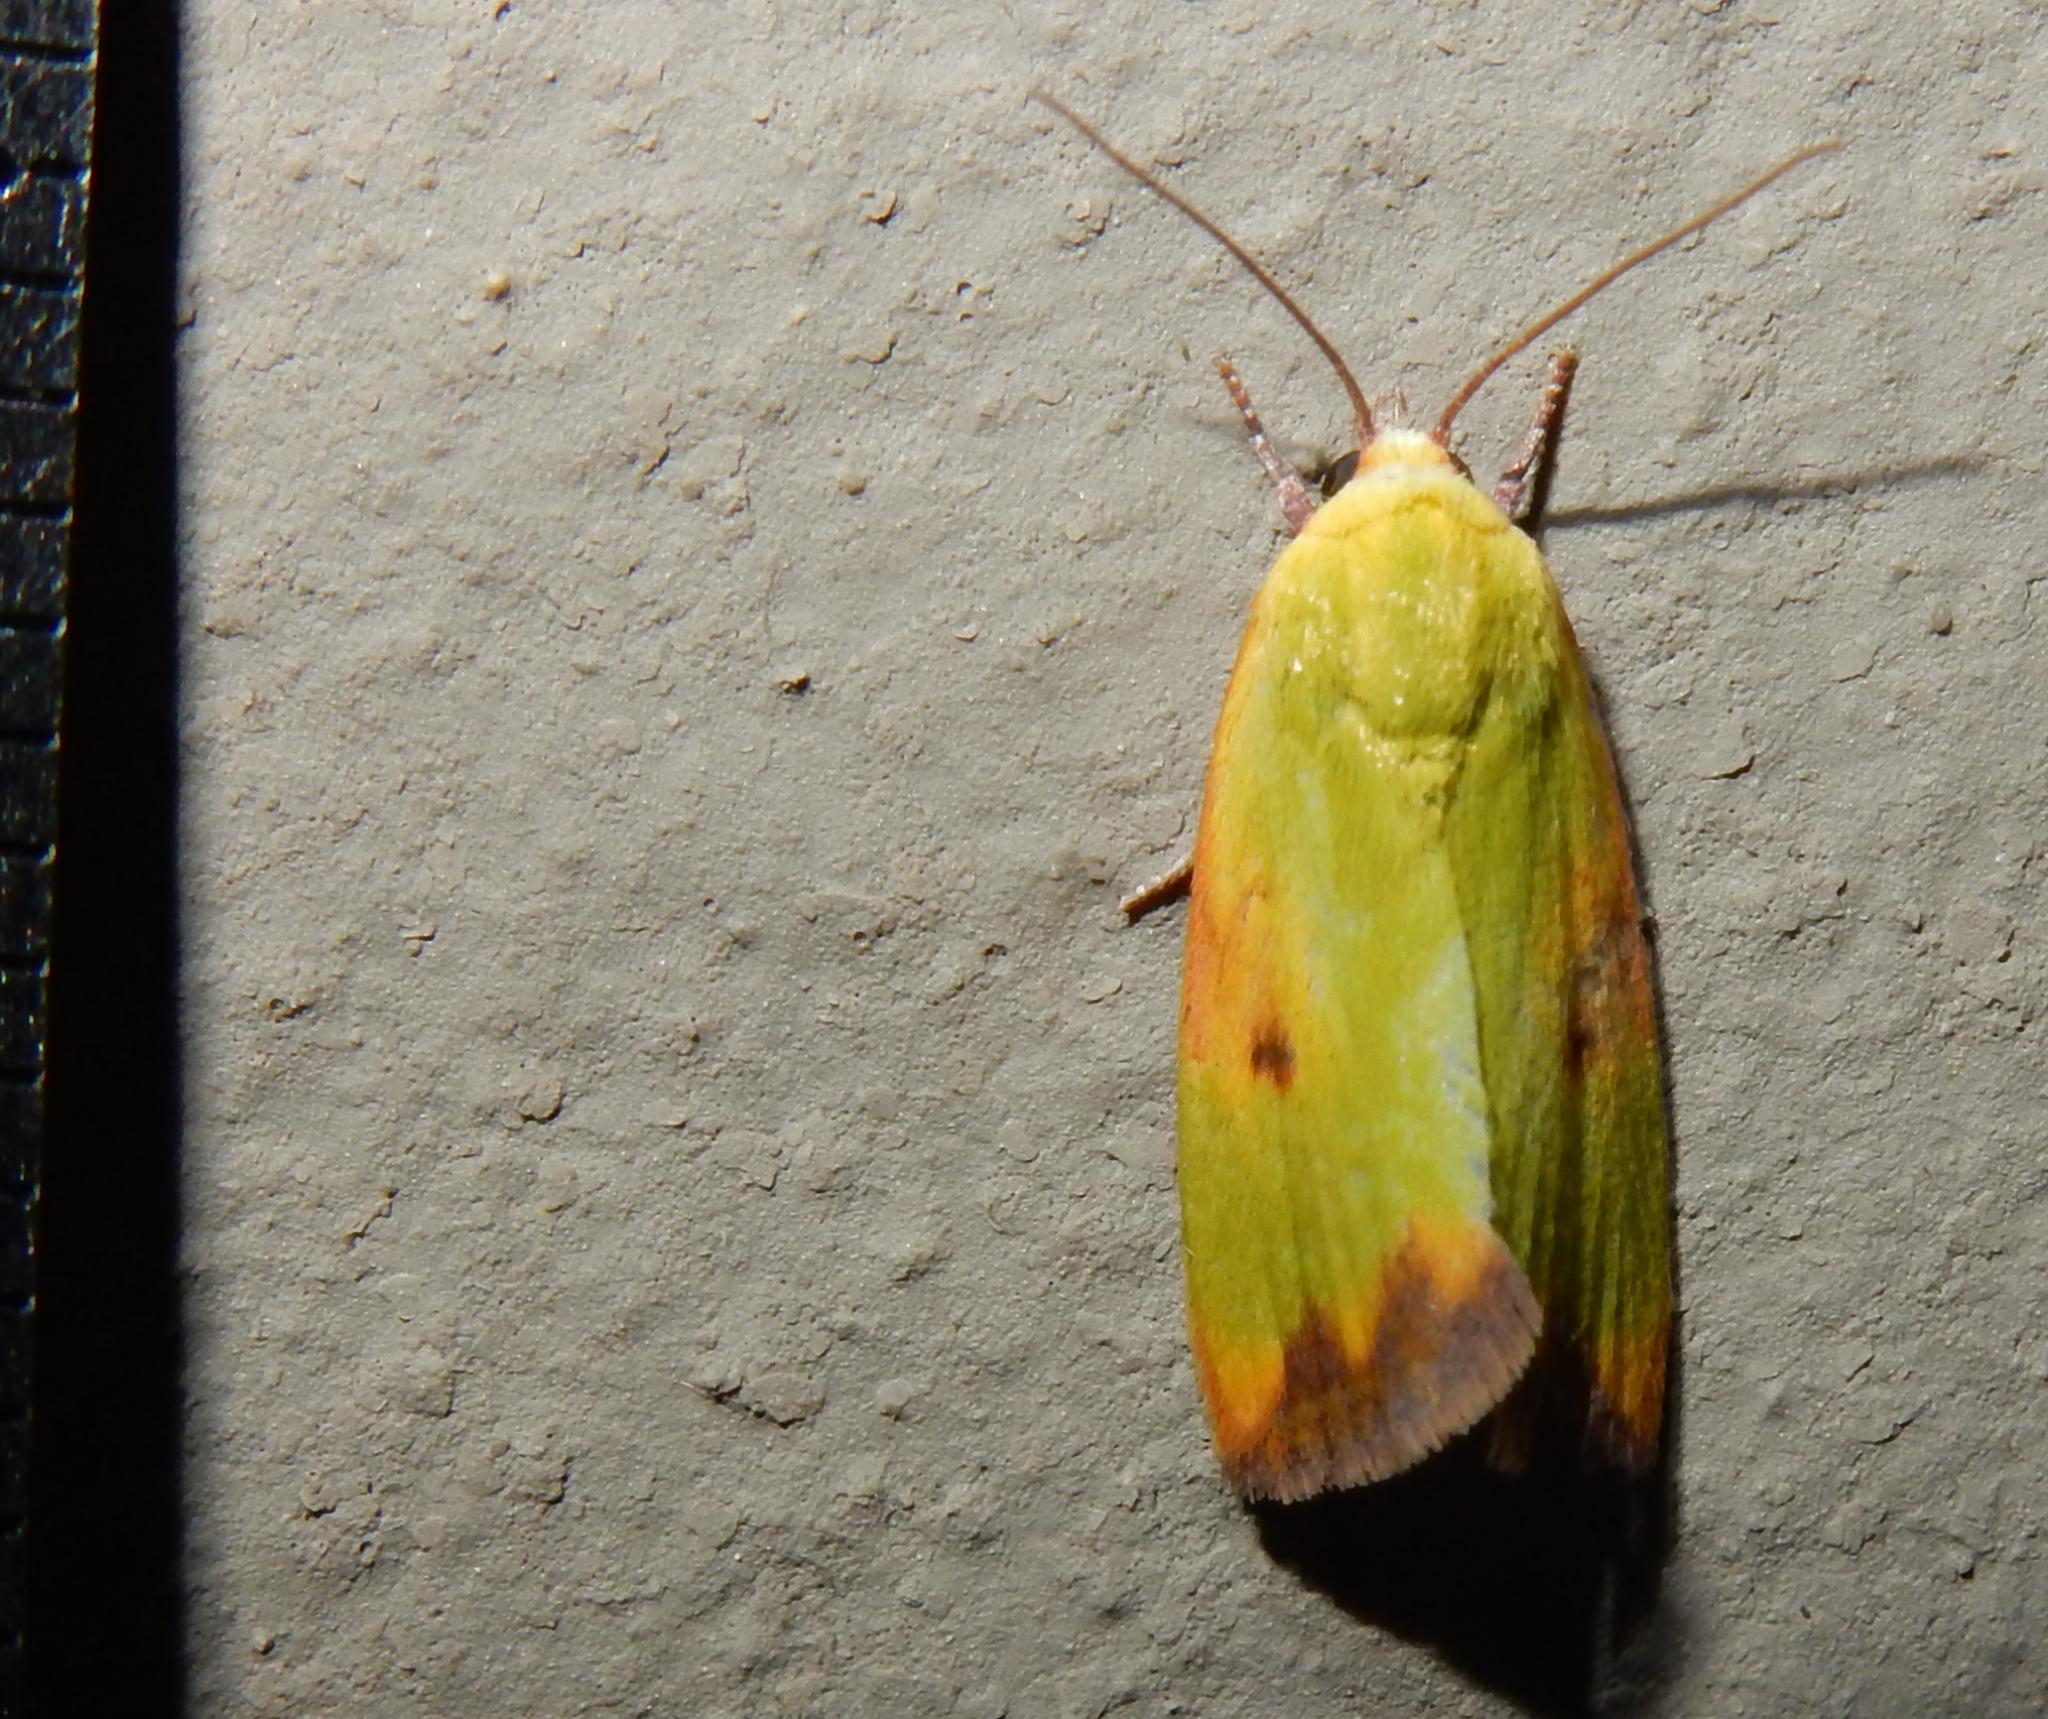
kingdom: Animalia
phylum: Arthropoda
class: Insecta
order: Lepidoptera
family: Nolidae
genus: Earias
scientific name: Earias cupreoviridis
